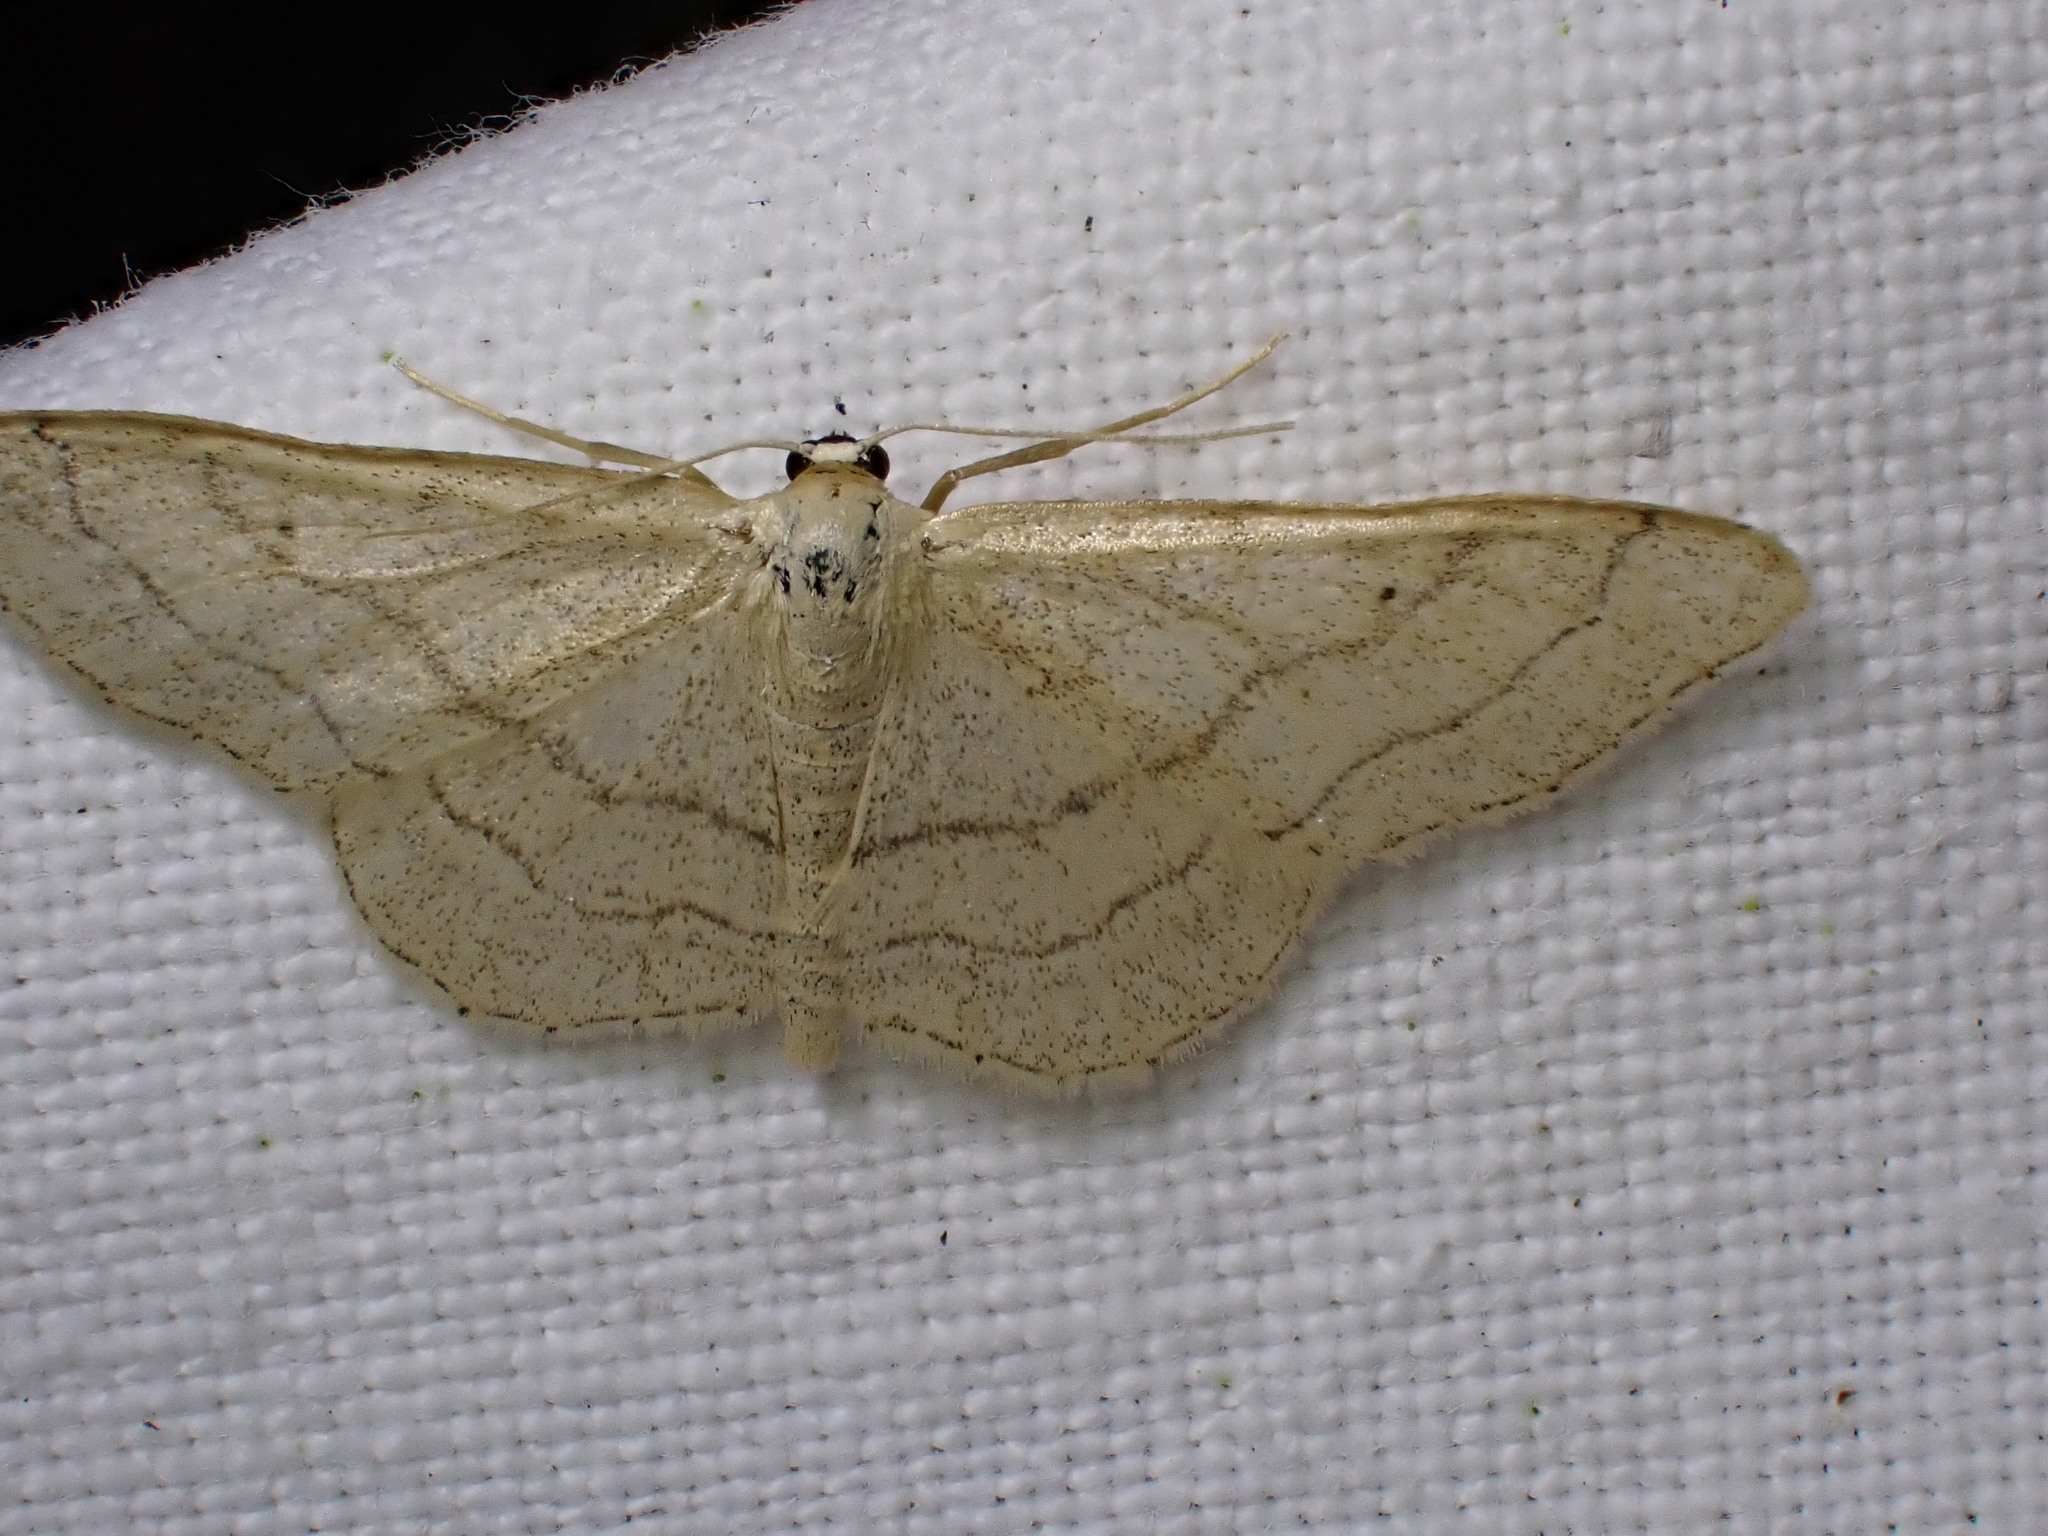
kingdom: Animalia
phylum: Arthropoda
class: Insecta
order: Lepidoptera
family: Geometridae
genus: Idaea
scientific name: Idaea aversata
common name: Riband wave
